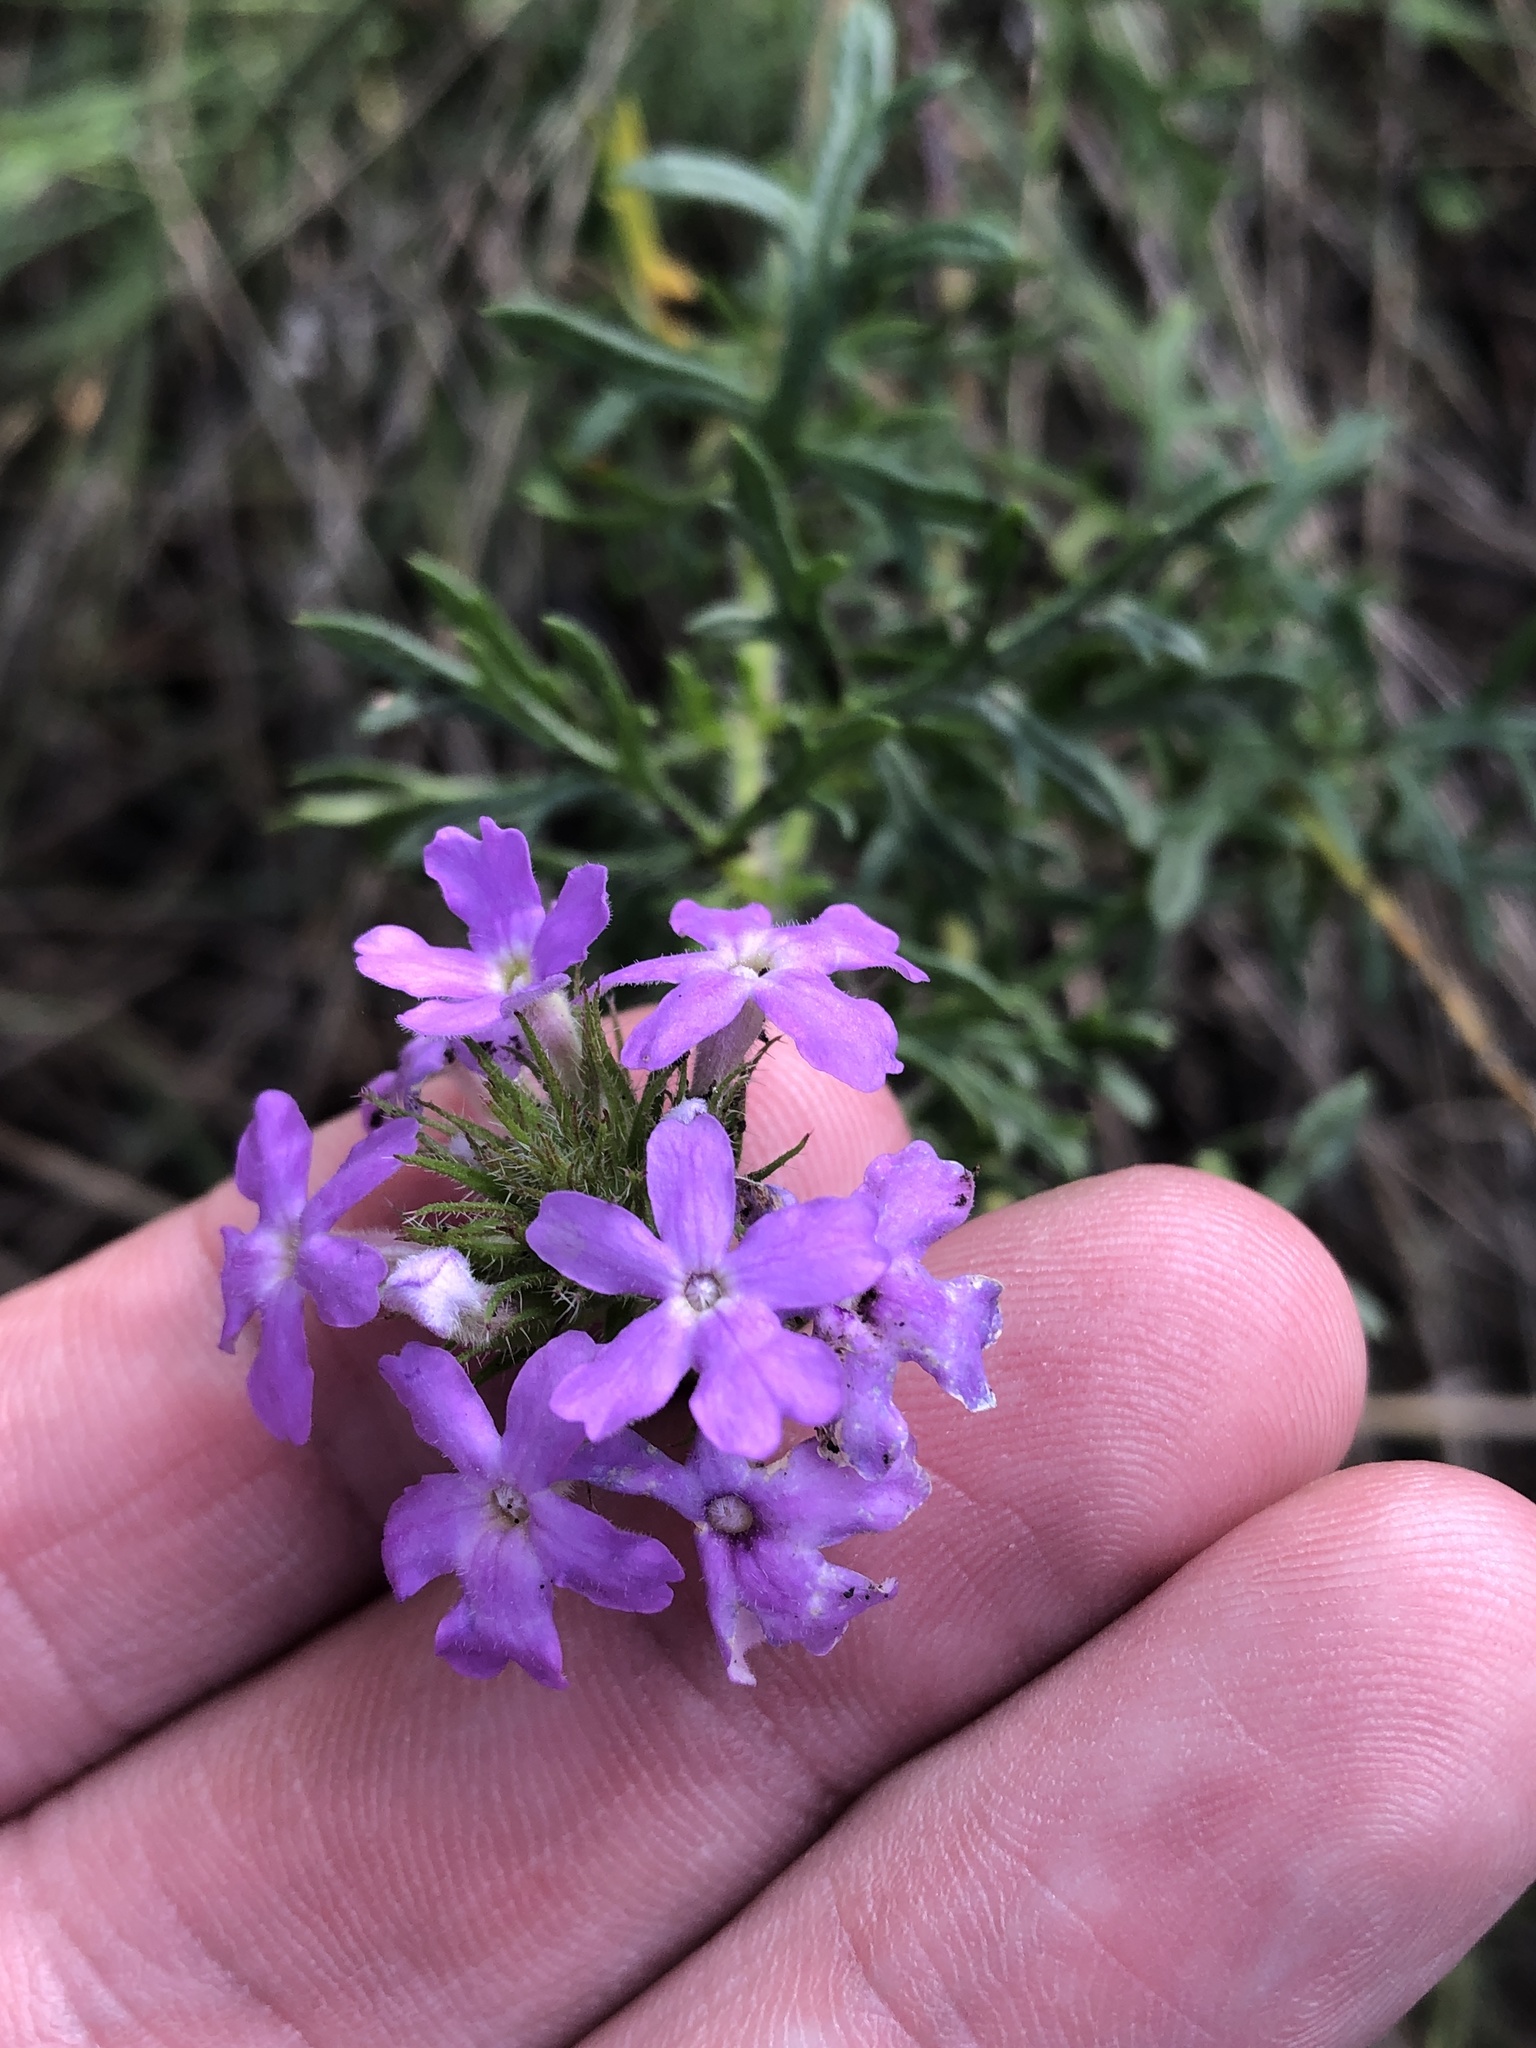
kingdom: Plantae
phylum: Tracheophyta
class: Magnoliopsida
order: Lamiales
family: Verbenaceae
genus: Verbena
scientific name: Verbena bipinnatifida
